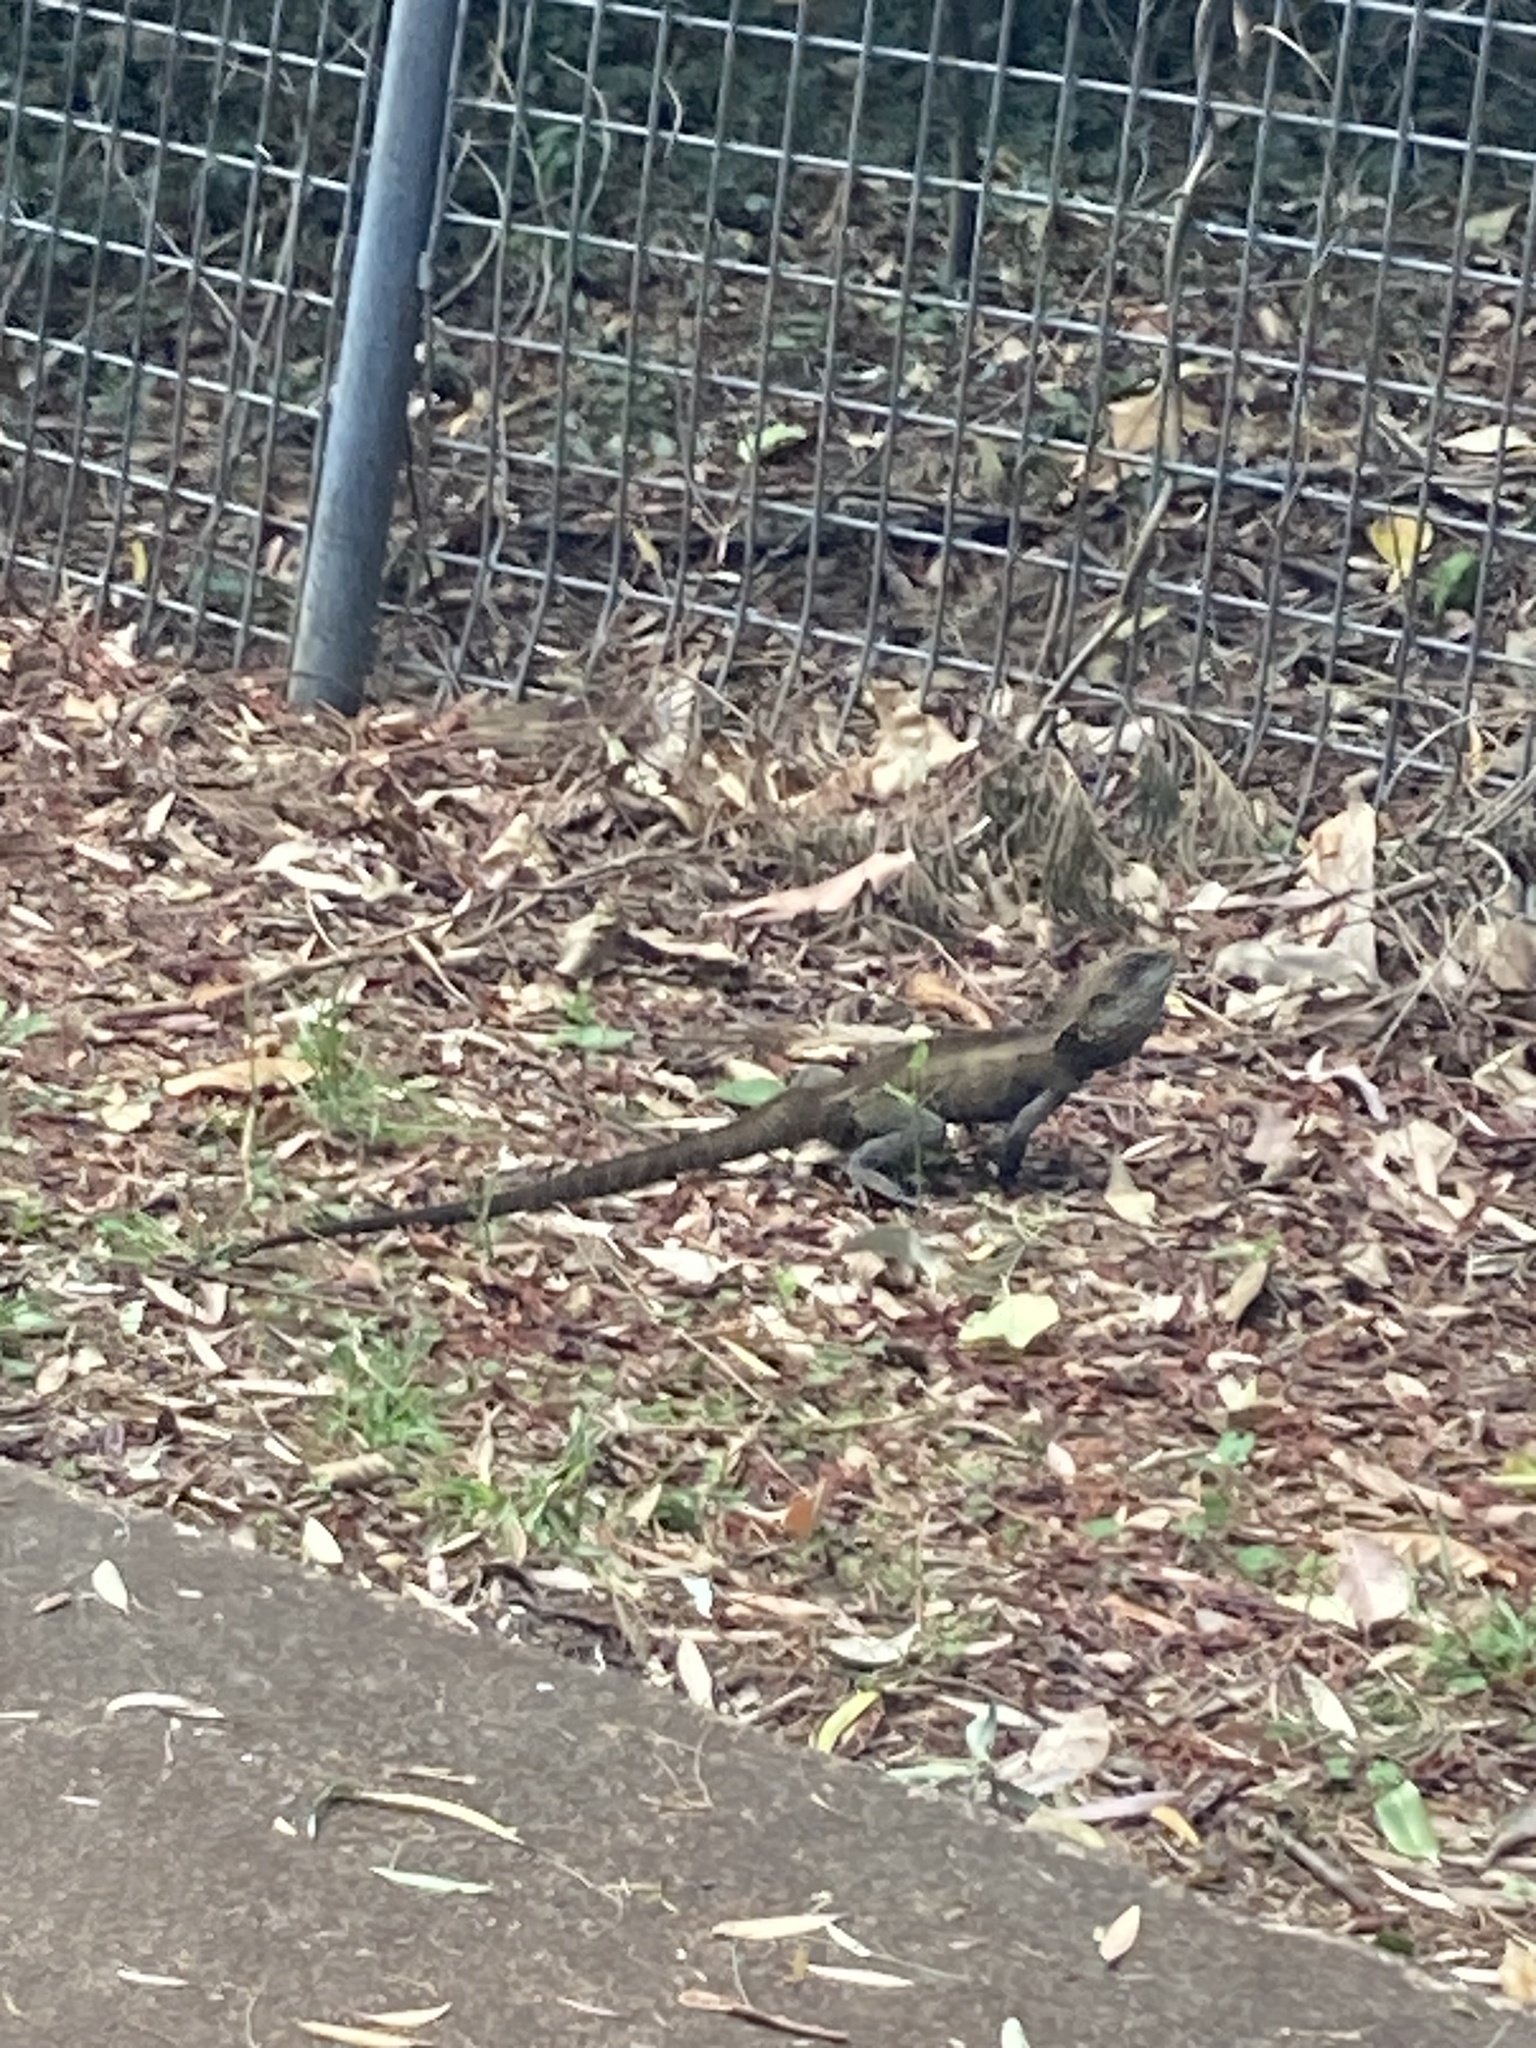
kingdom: Animalia
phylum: Chordata
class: Squamata
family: Agamidae
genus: Intellagama
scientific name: Intellagama lesueurii
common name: Eastern water dragon
